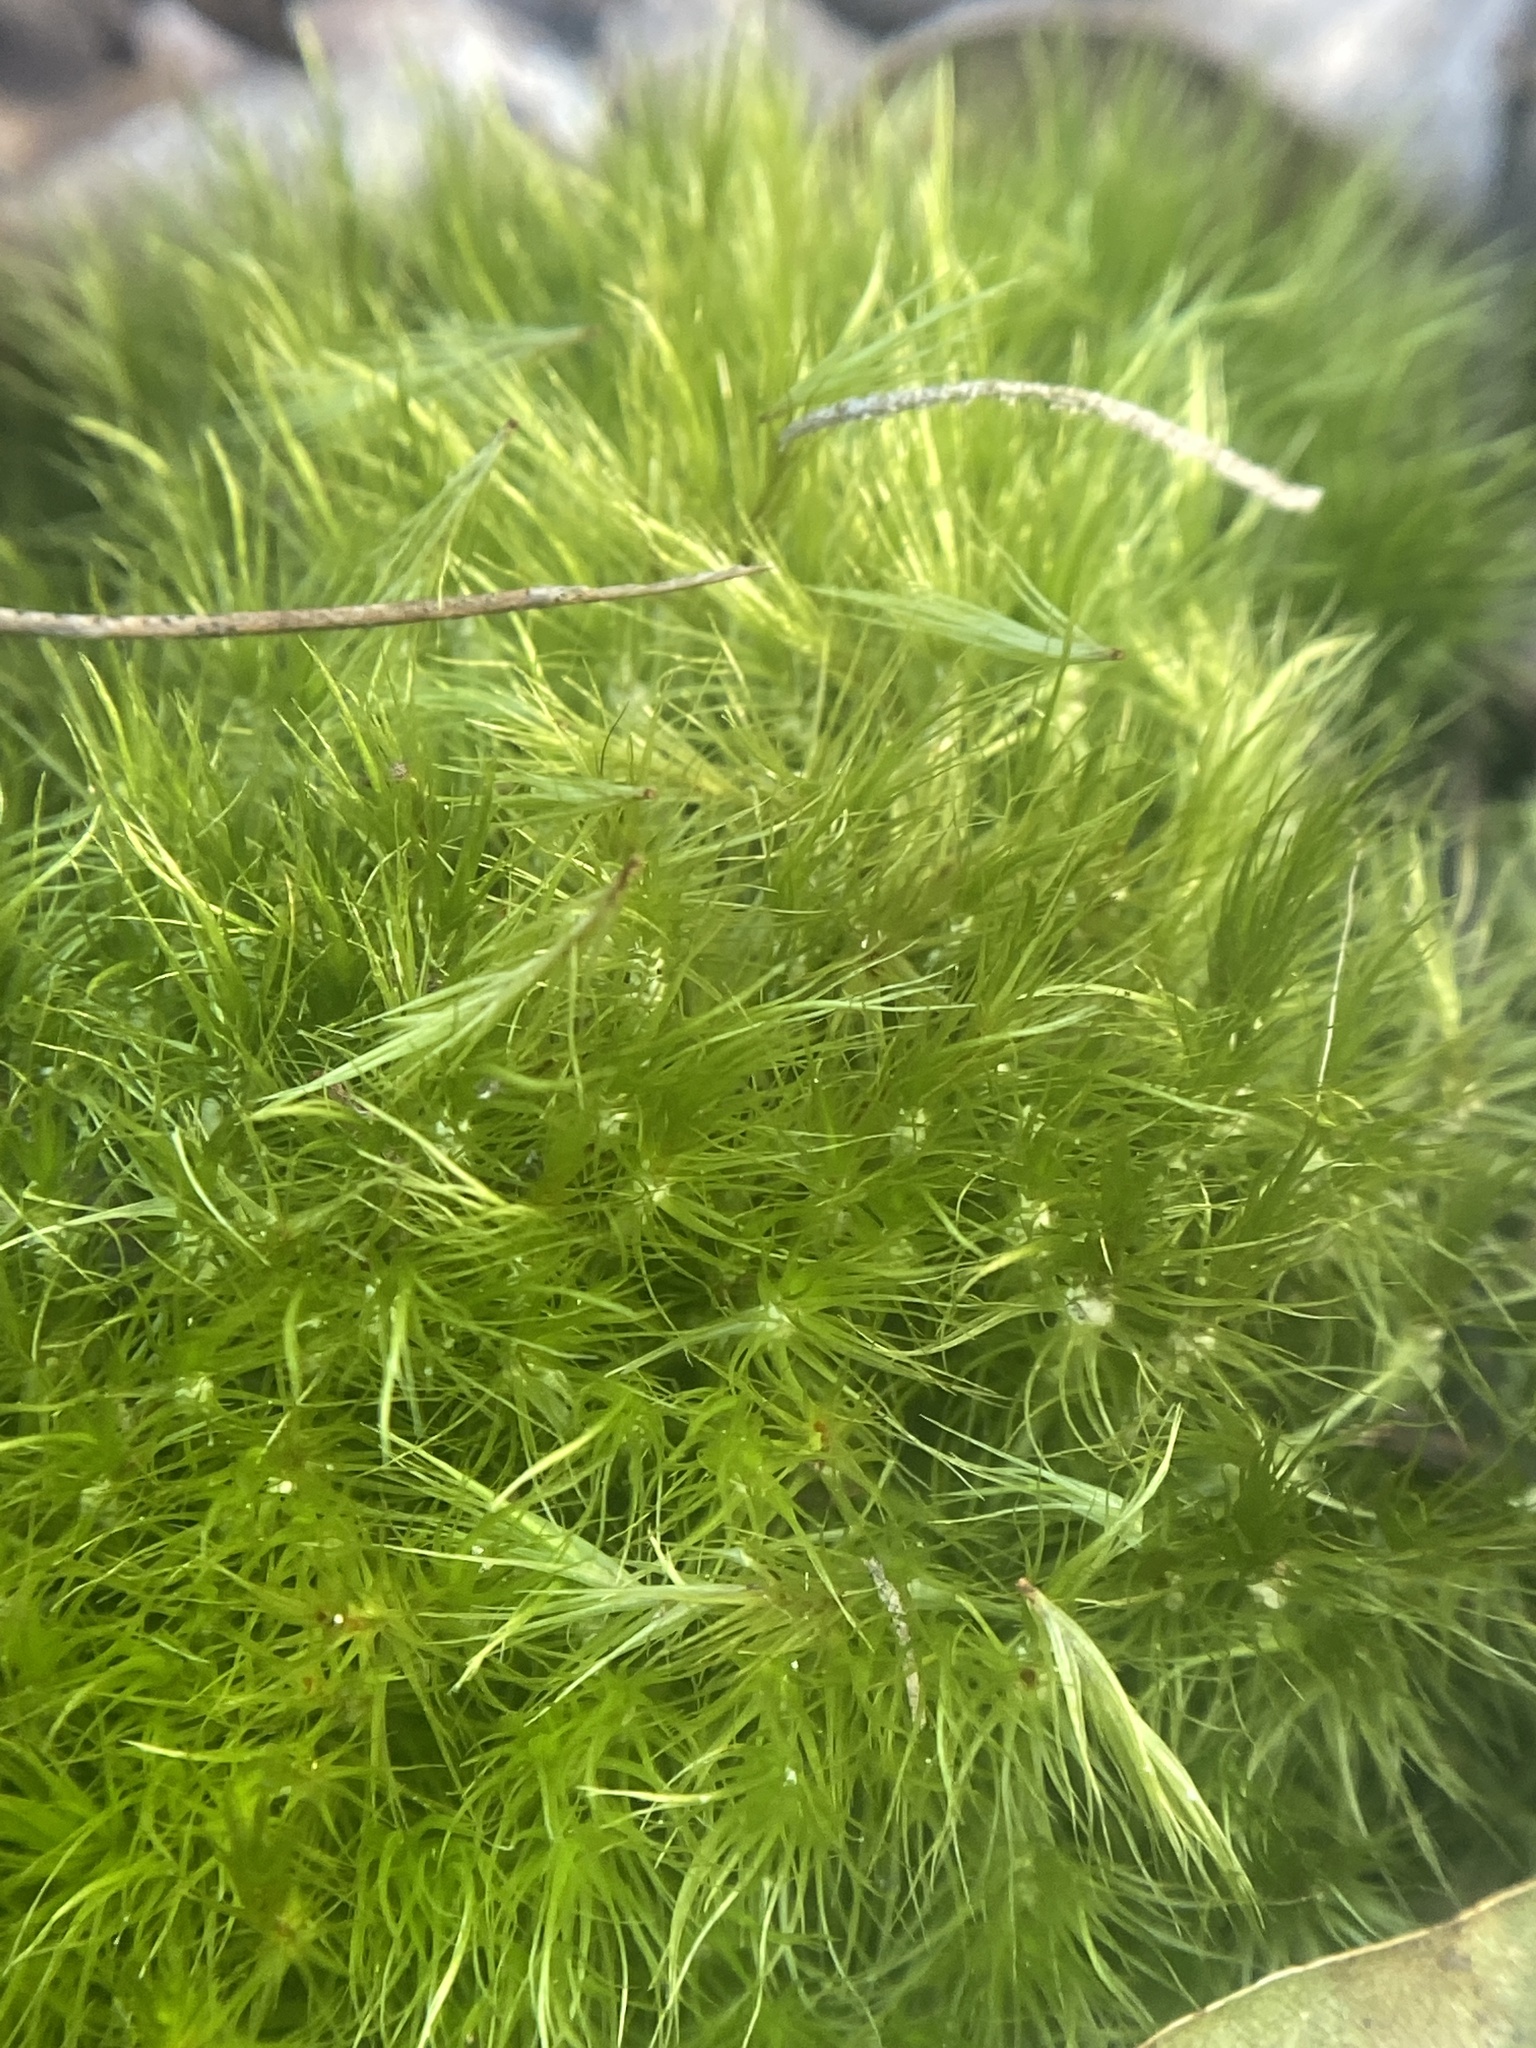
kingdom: Plantae
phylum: Bryophyta
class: Bryopsida
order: Dicranales
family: Dicranaceae
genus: Dicranum
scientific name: Dicranum scoparium
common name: Broom fork-moss
